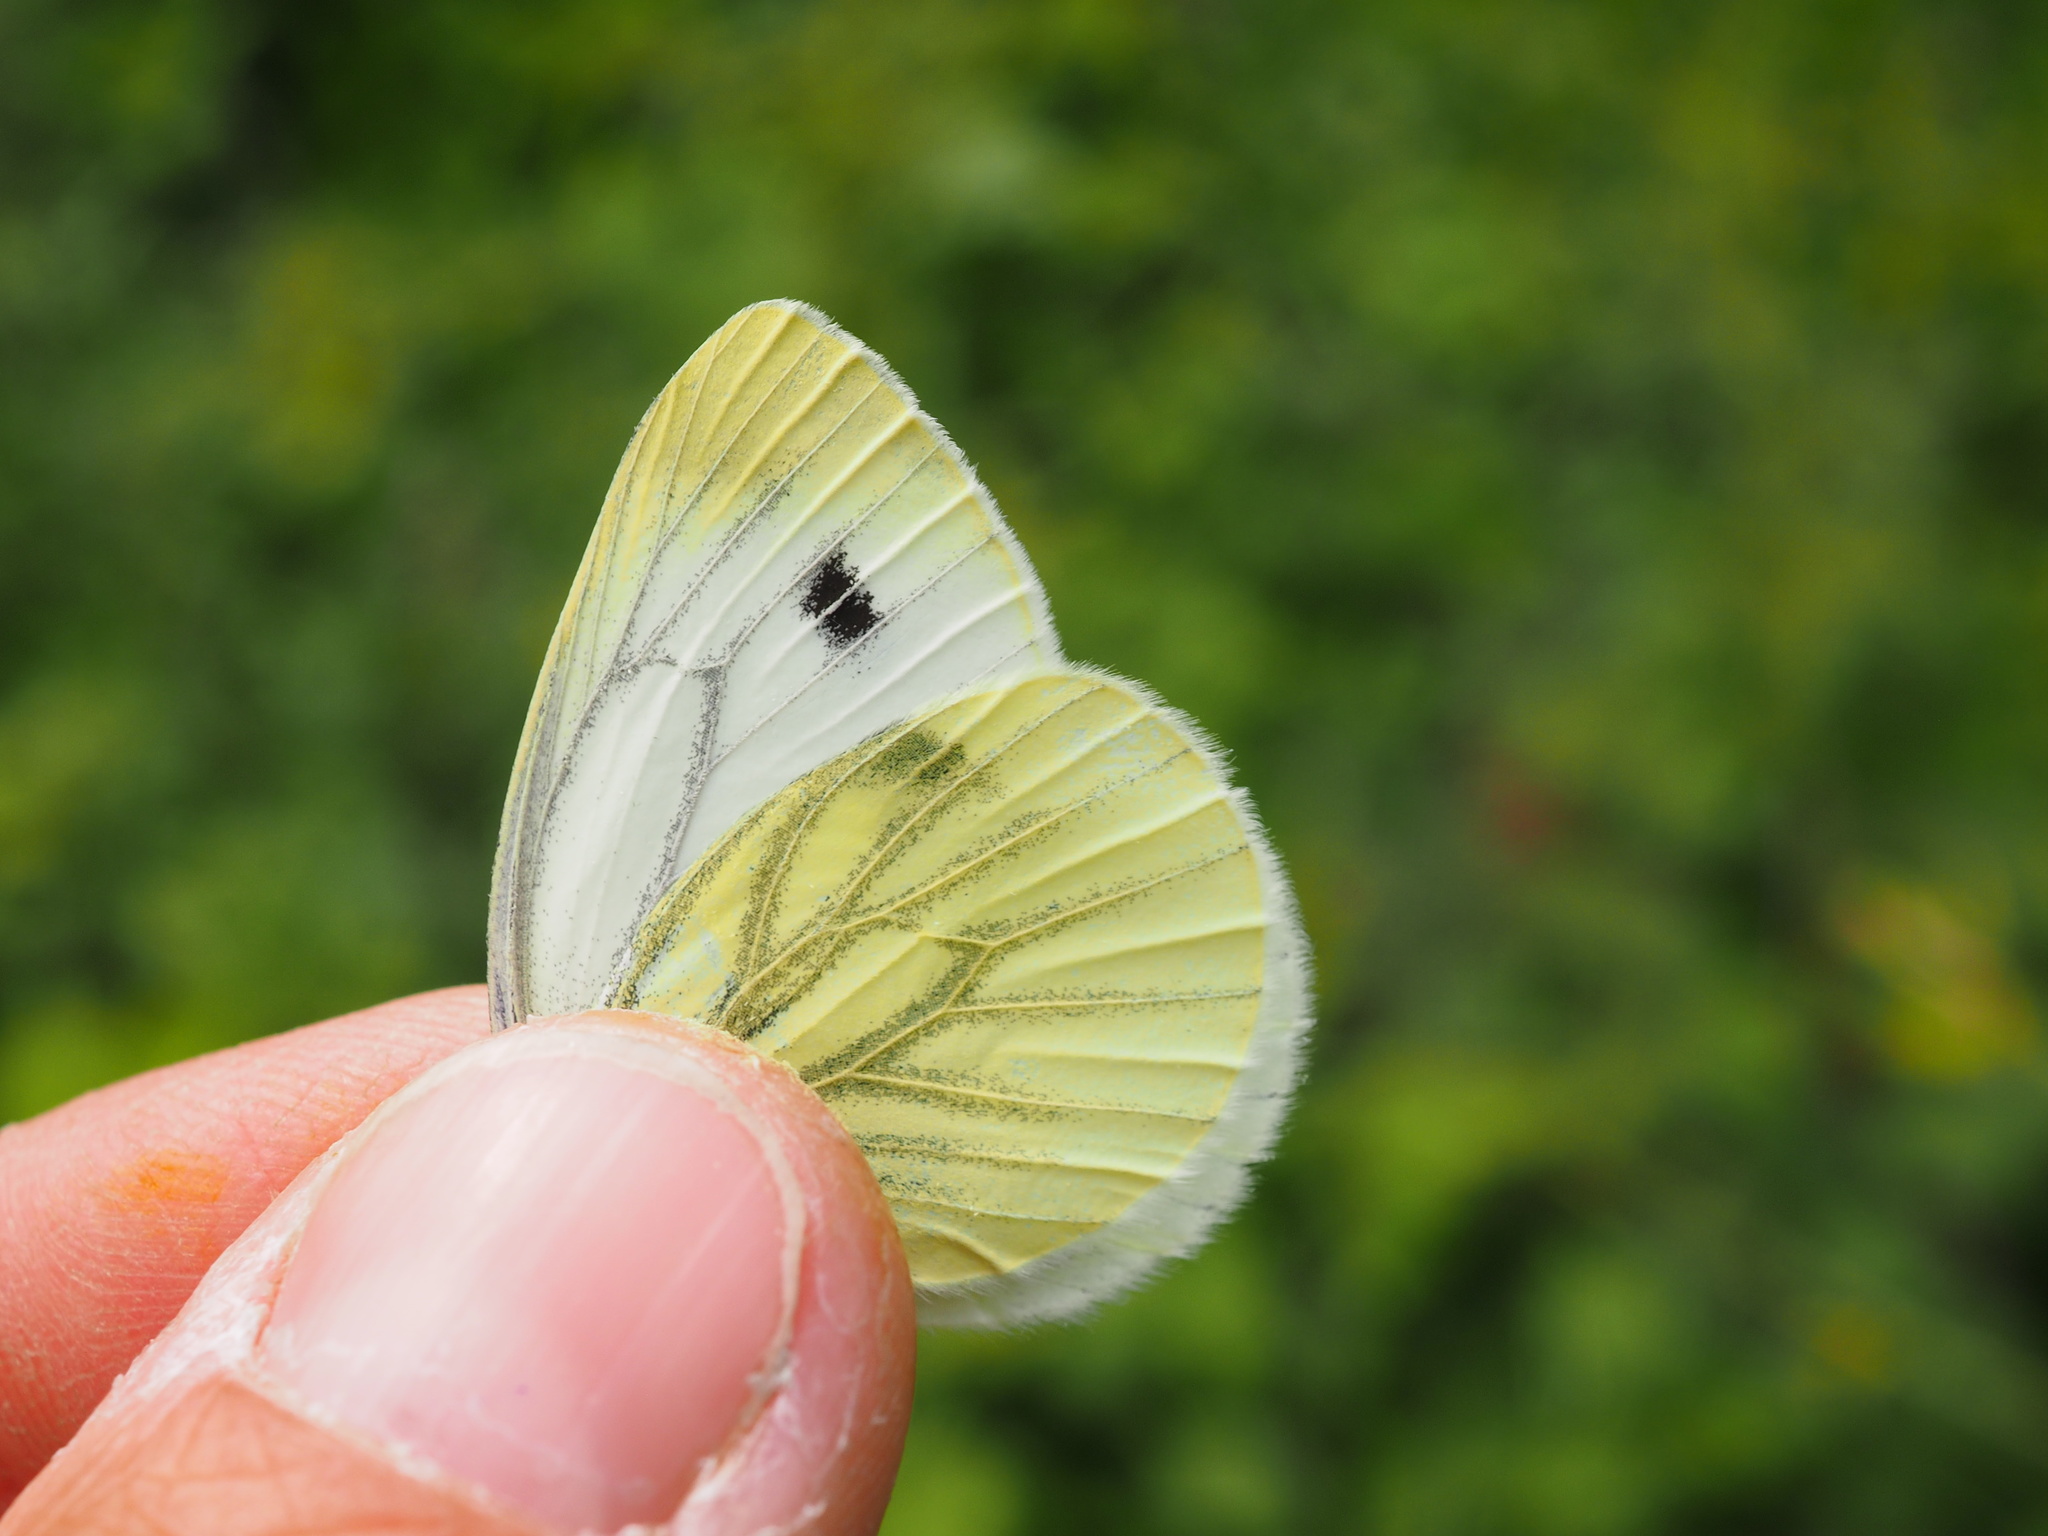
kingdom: Animalia
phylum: Arthropoda
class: Insecta
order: Lepidoptera
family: Pieridae
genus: Pieris
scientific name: Pieris napi
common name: Green-veined white
